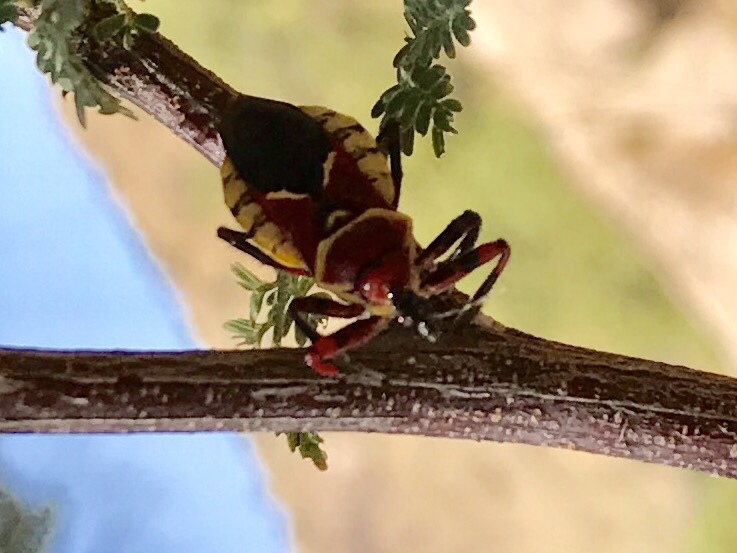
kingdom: Animalia
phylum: Arthropoda
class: Insecta
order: Hemiptera
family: Reduviidae
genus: Apiomerus
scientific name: Apiomerus flaviventris
